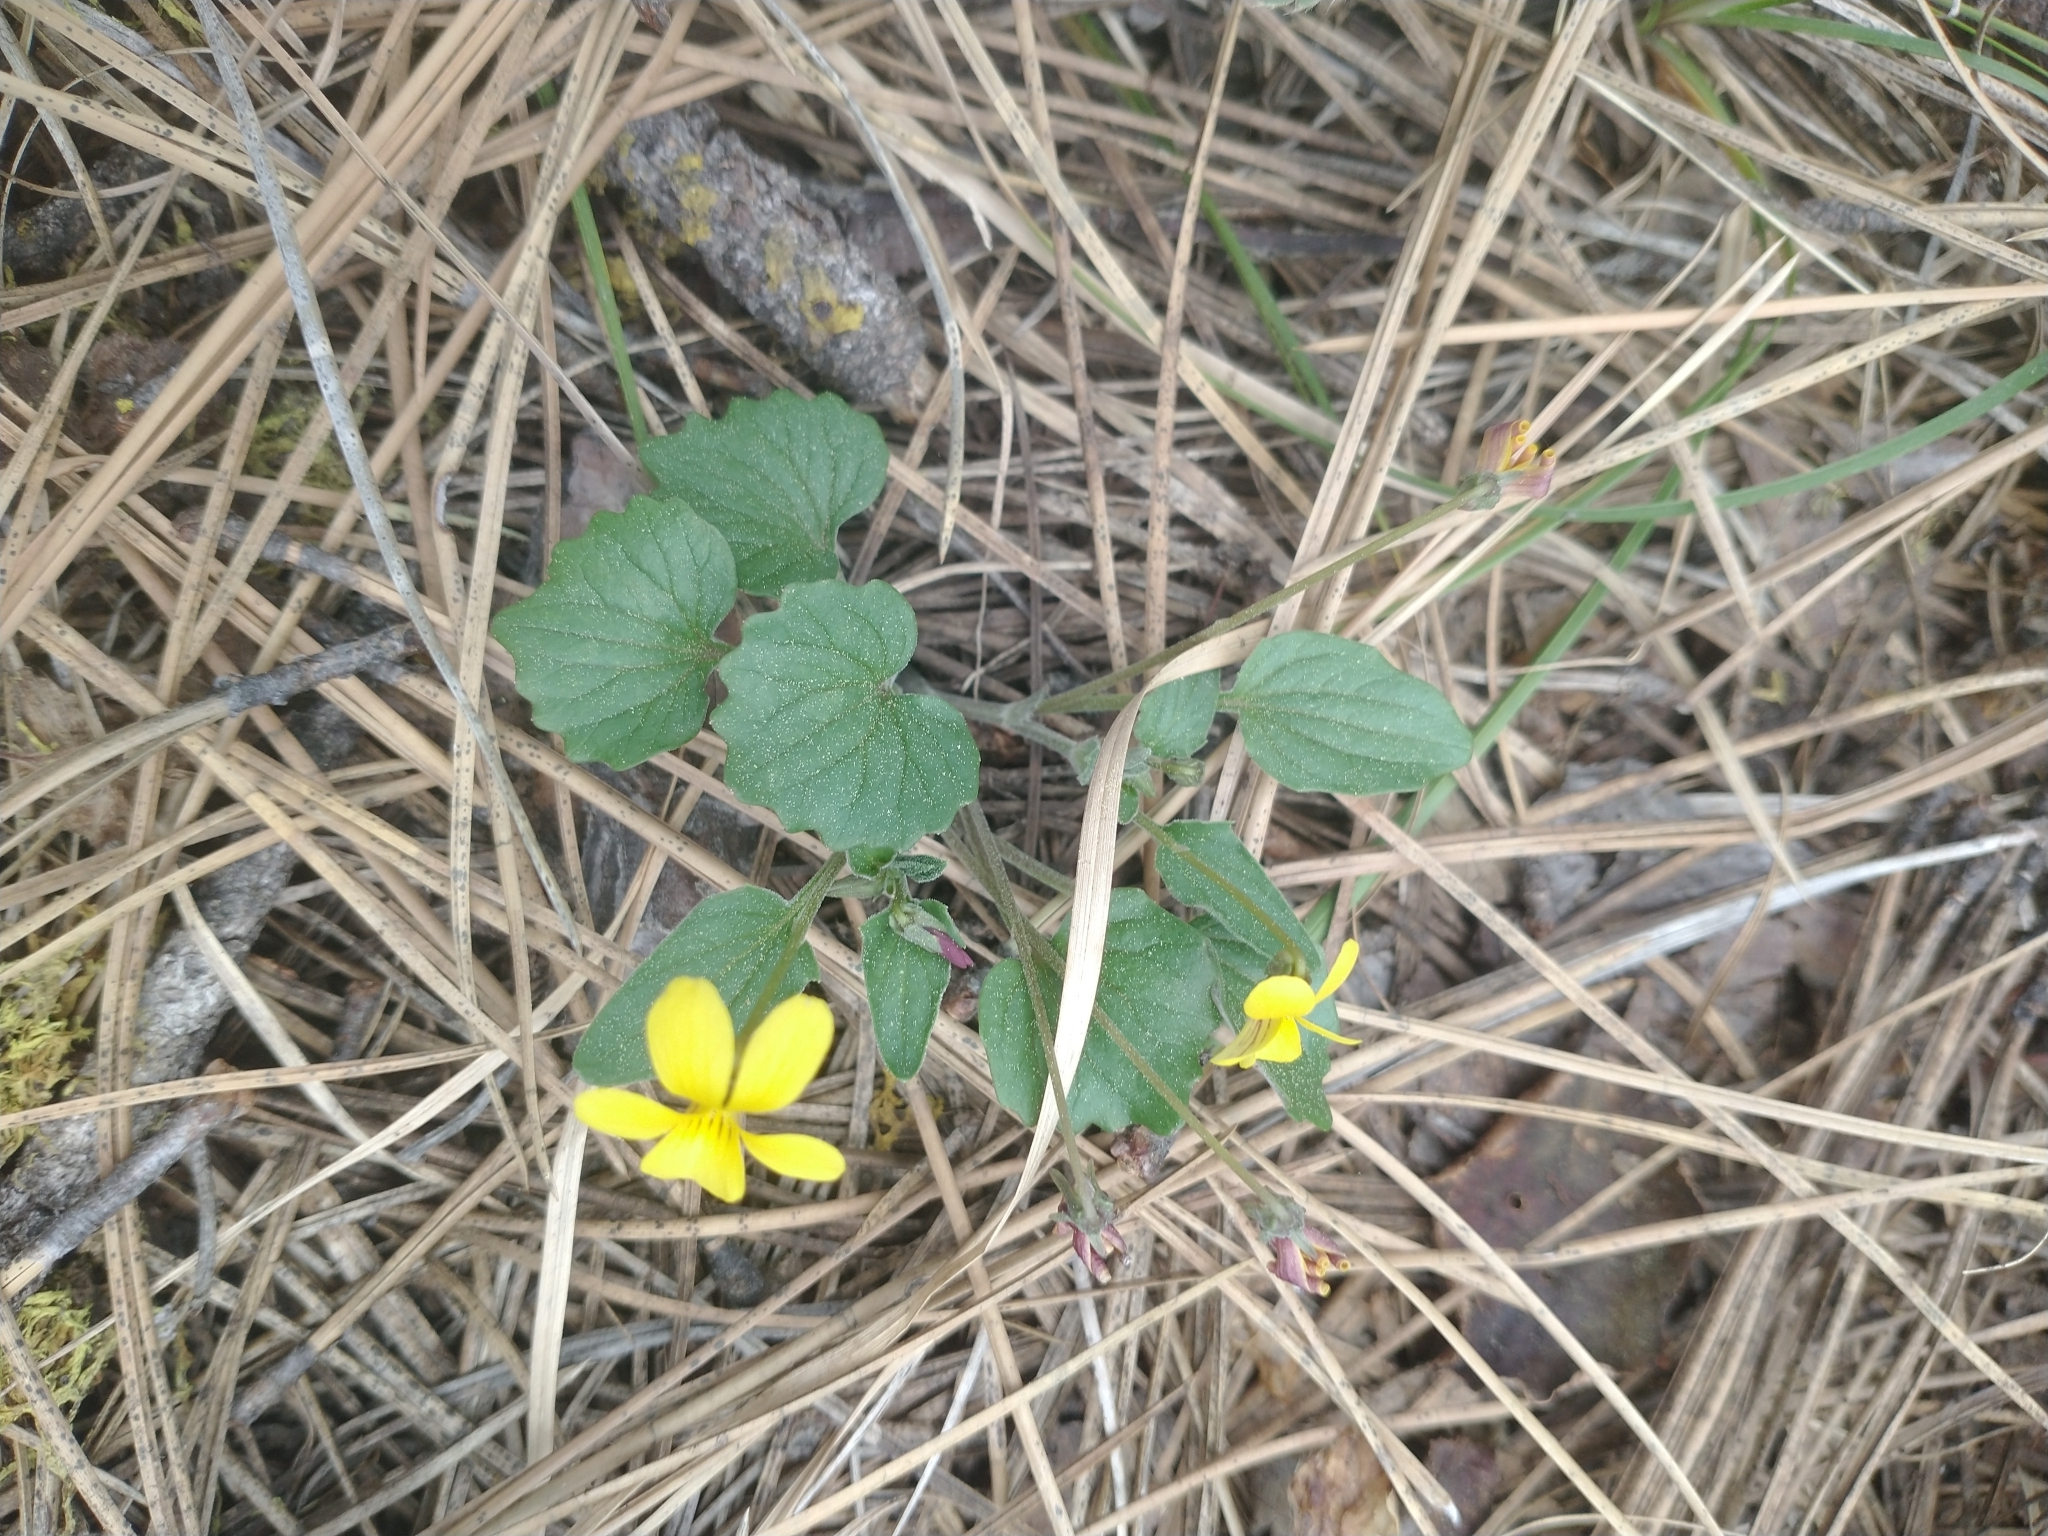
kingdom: Plantae
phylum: Tracheophyta
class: Magnoliopsida
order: Malpighiales
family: Violaceae
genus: Viola
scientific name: Viola purpurea
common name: Pine violet
